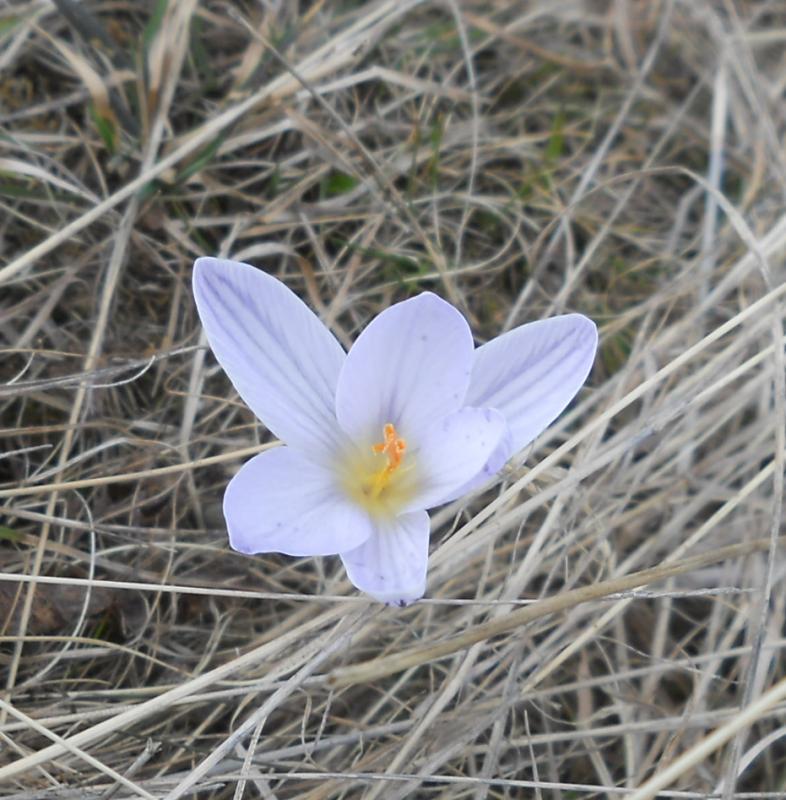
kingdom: Plantae
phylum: Tracheophyta
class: Liliopsida
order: Asparagales
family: Iridaceae
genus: Crocus
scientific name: Crocus reticulatus
